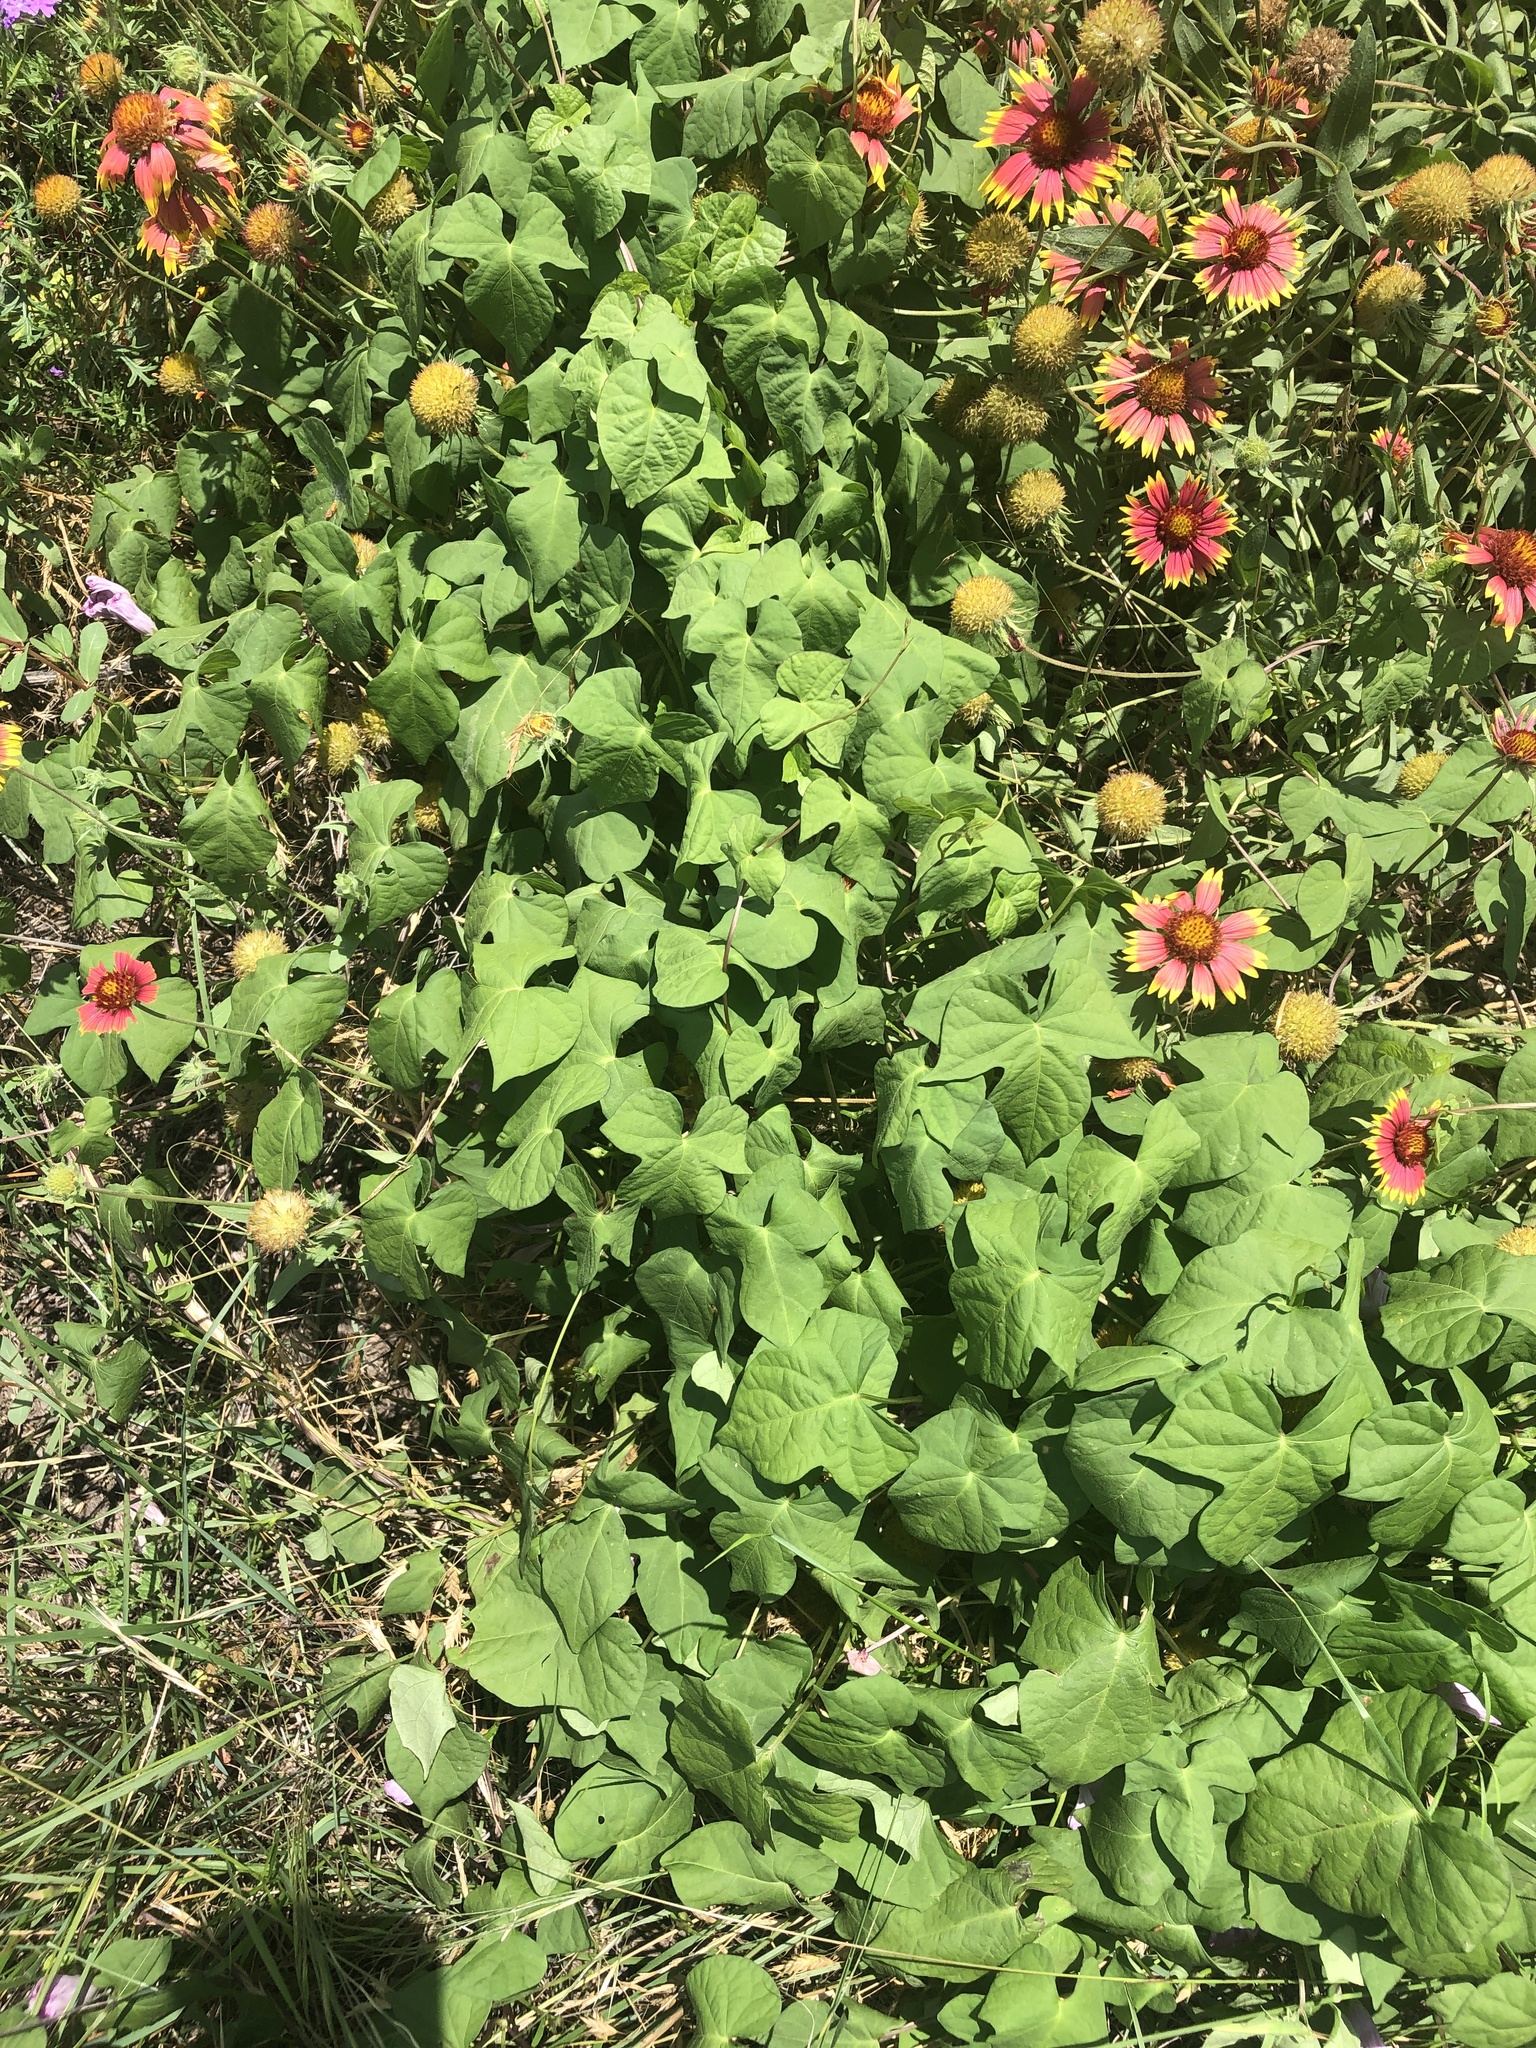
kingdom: Plantae
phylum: Tracheophyta
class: Magnoliopsida
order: Solanales
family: Convolvulaceae
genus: Ipomoea
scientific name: Ipomoea cordatotriloba
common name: Cotton morning glory
